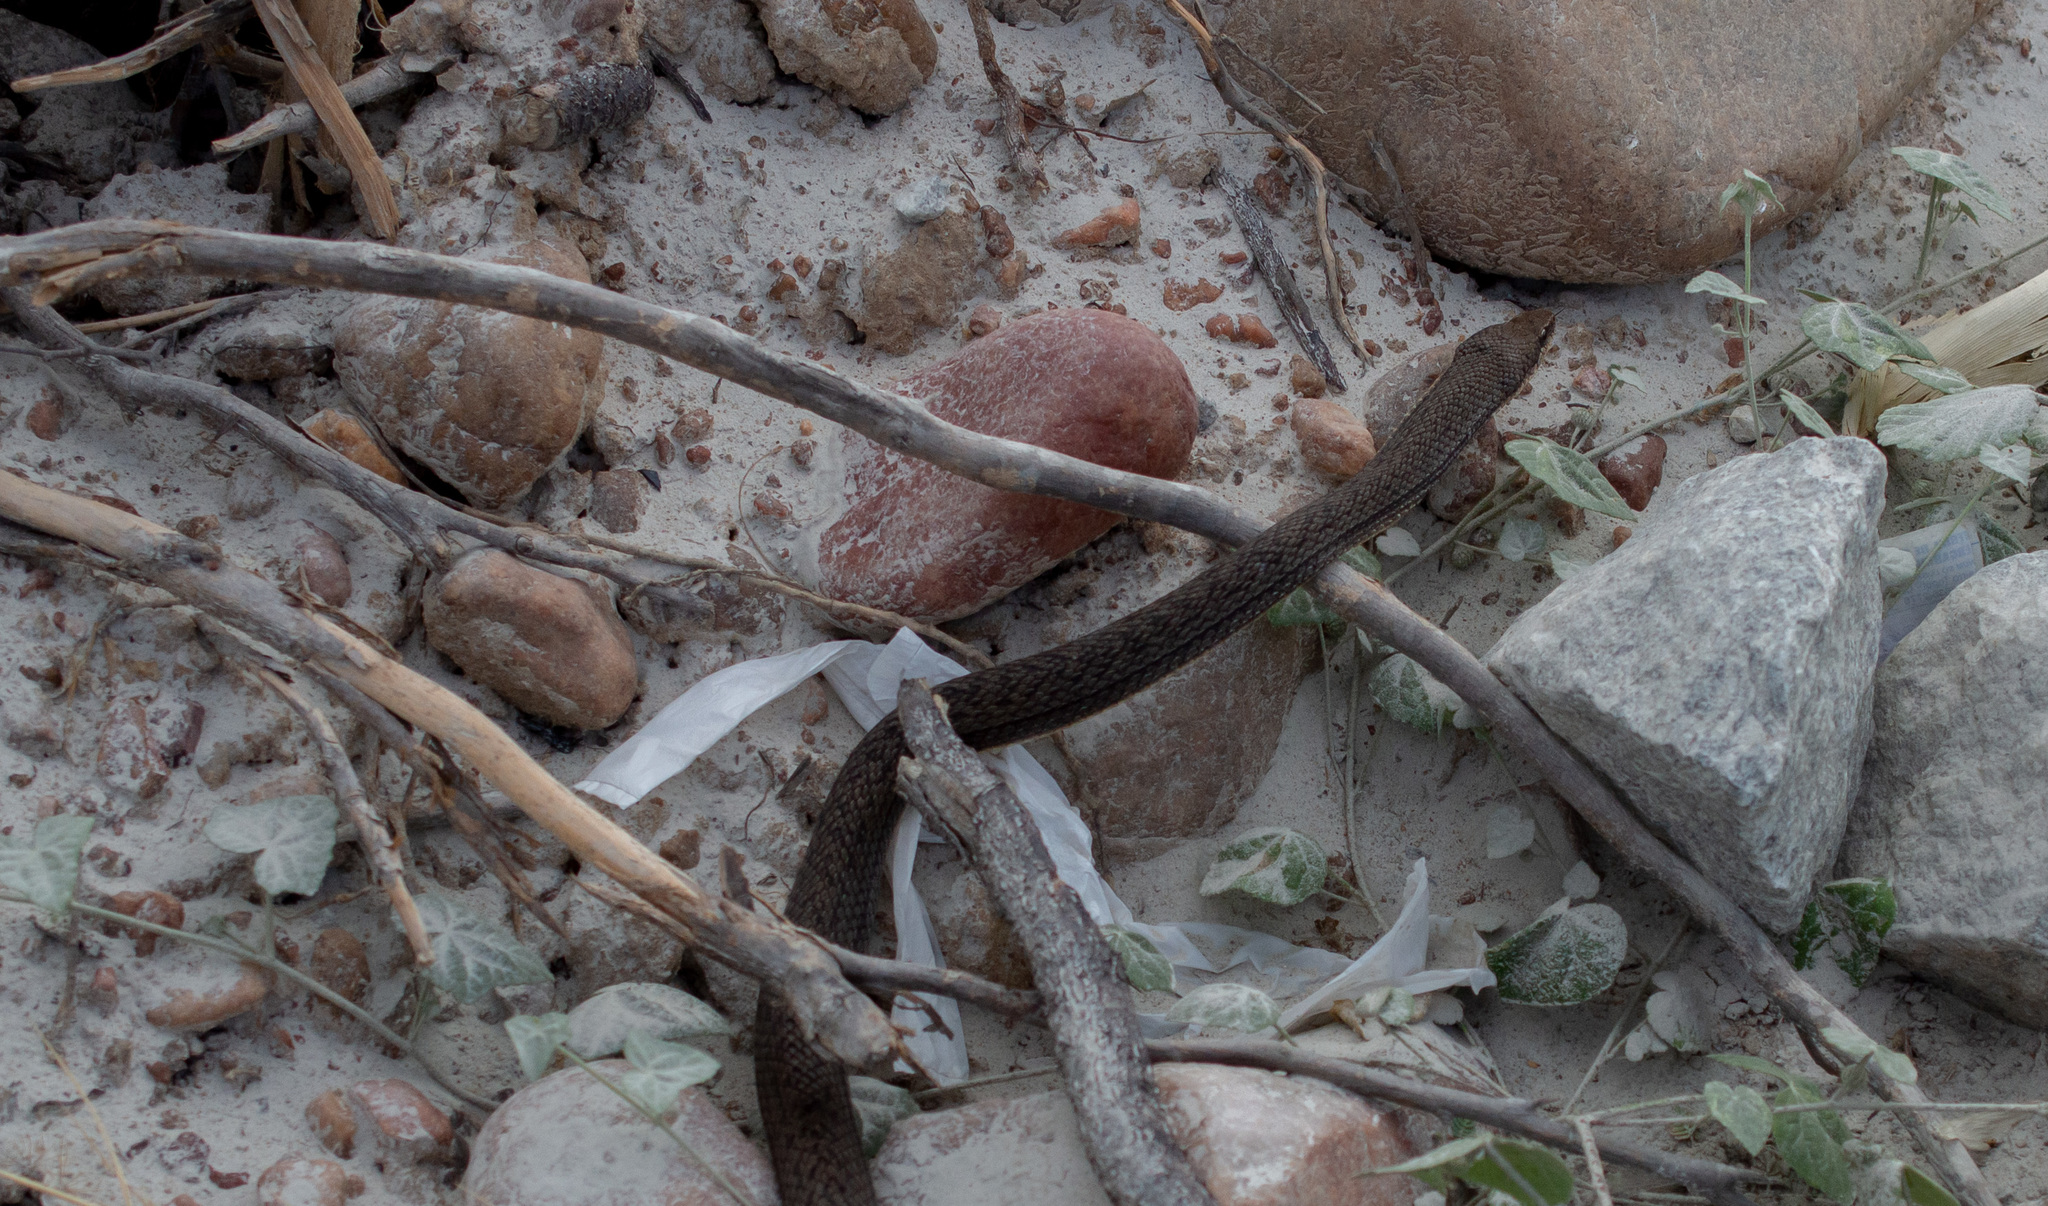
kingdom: Animalia
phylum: Chordata
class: Squamata
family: Colubridae
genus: Philodryas
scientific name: Philodryas nattereri
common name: Paraguay green racer
